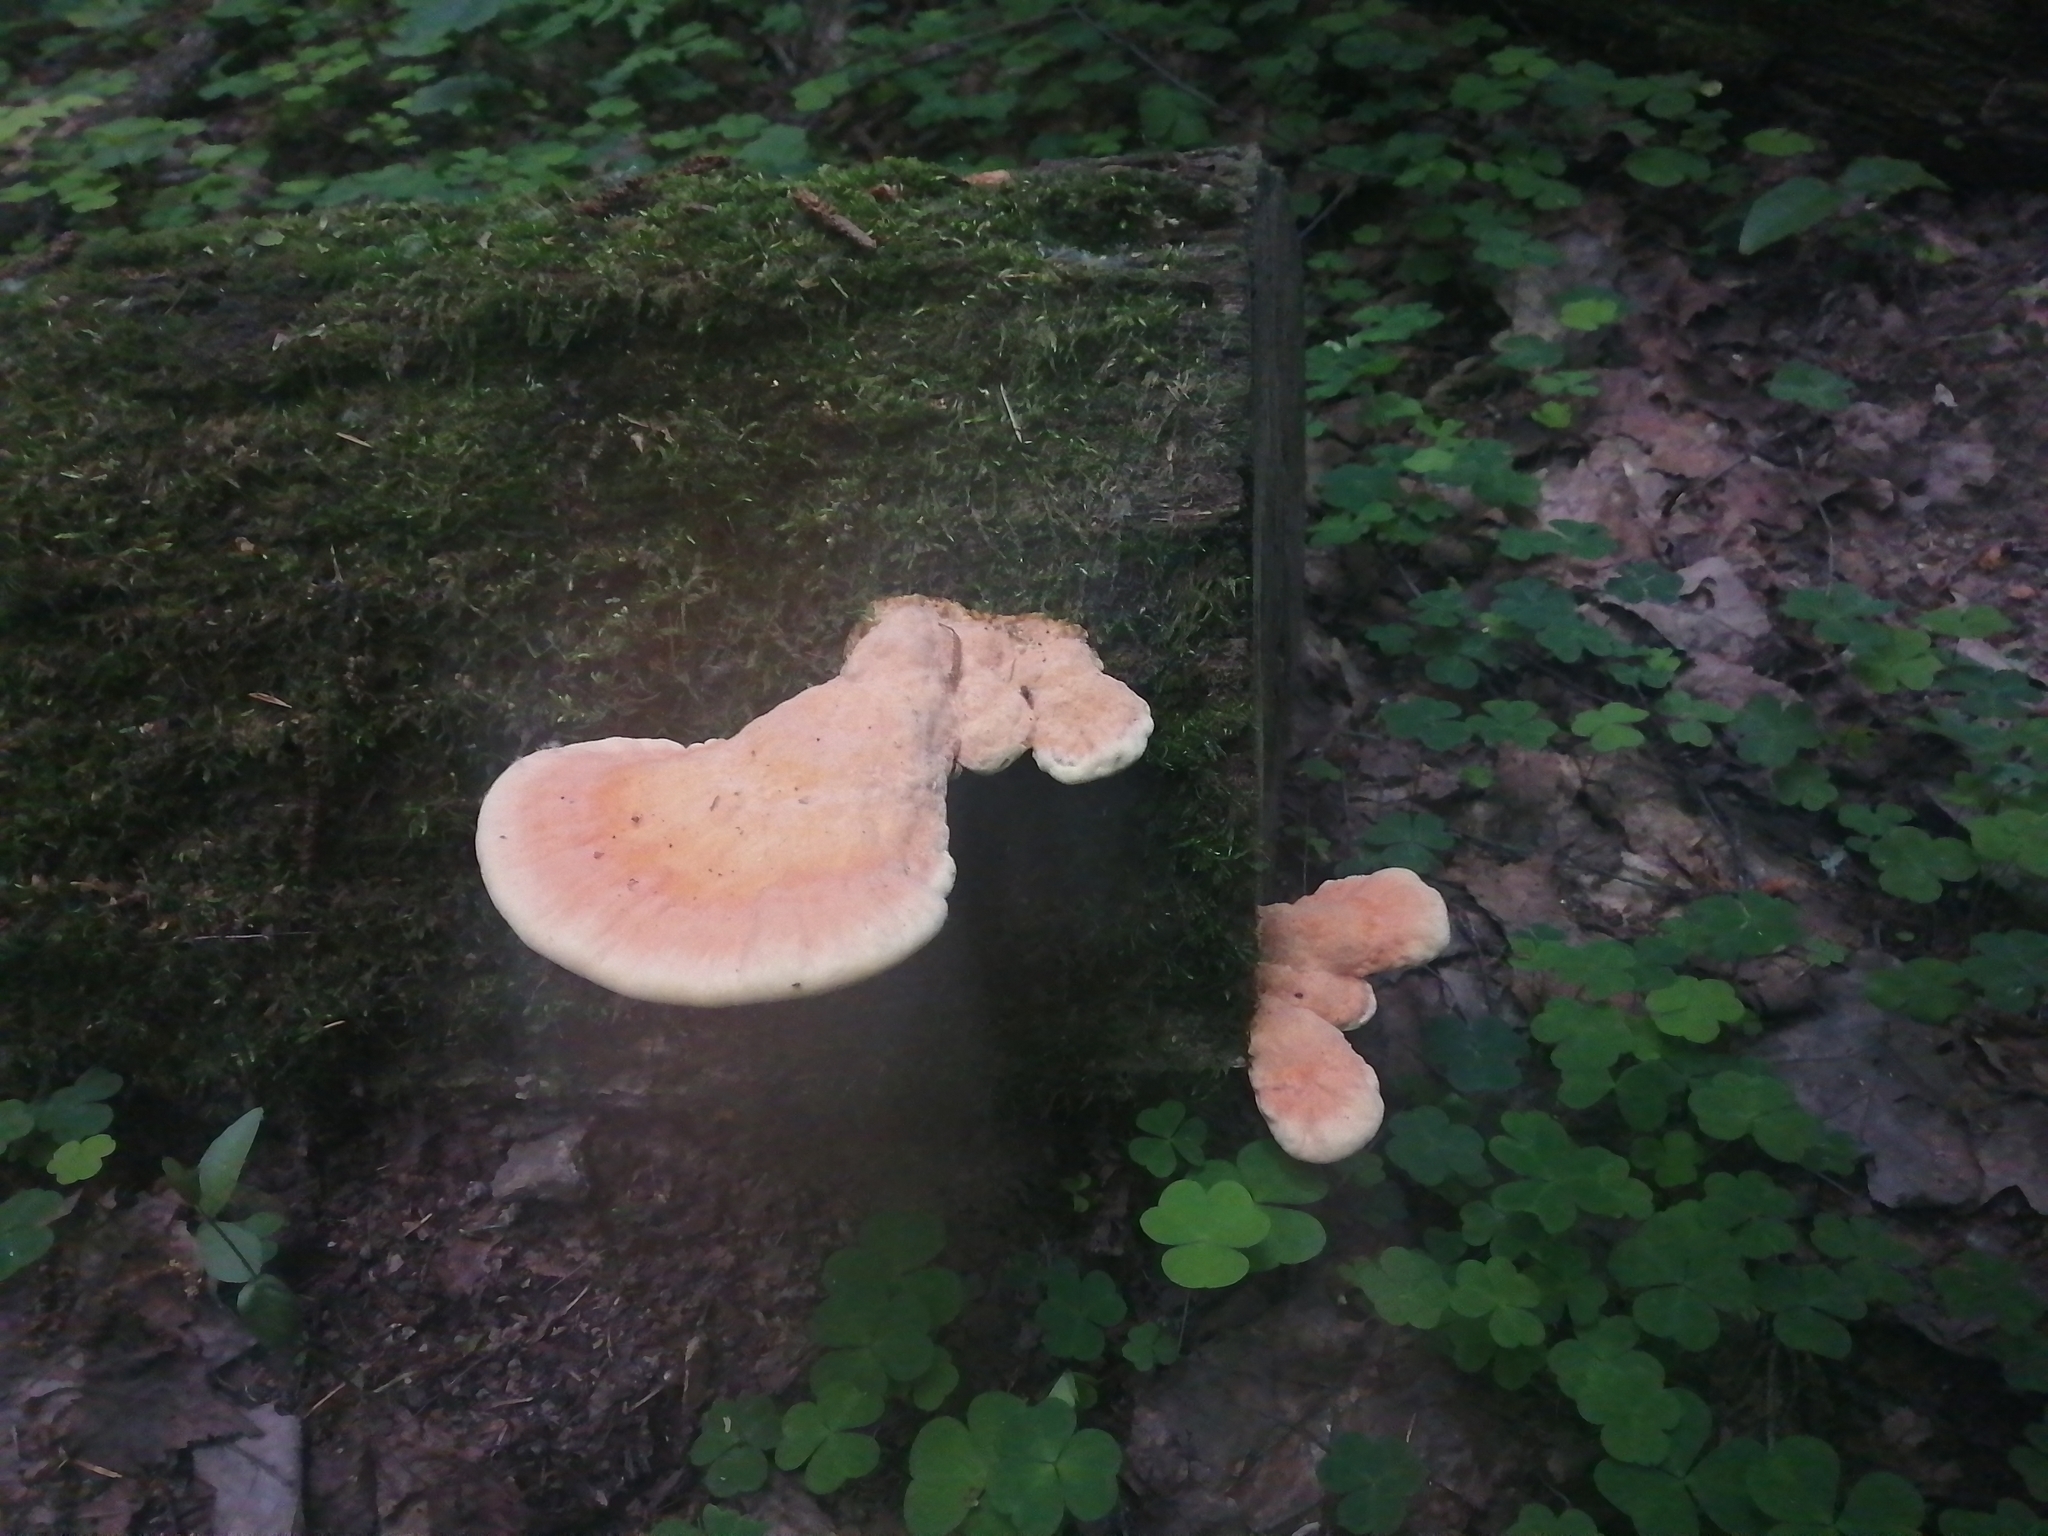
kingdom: Fungi
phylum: Basidiomycota
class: Agaricomycetes
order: Polyporales
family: Laetiporaceae
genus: Laetiporus
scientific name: Laetiporus sulphureus
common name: Chicken of the woods
